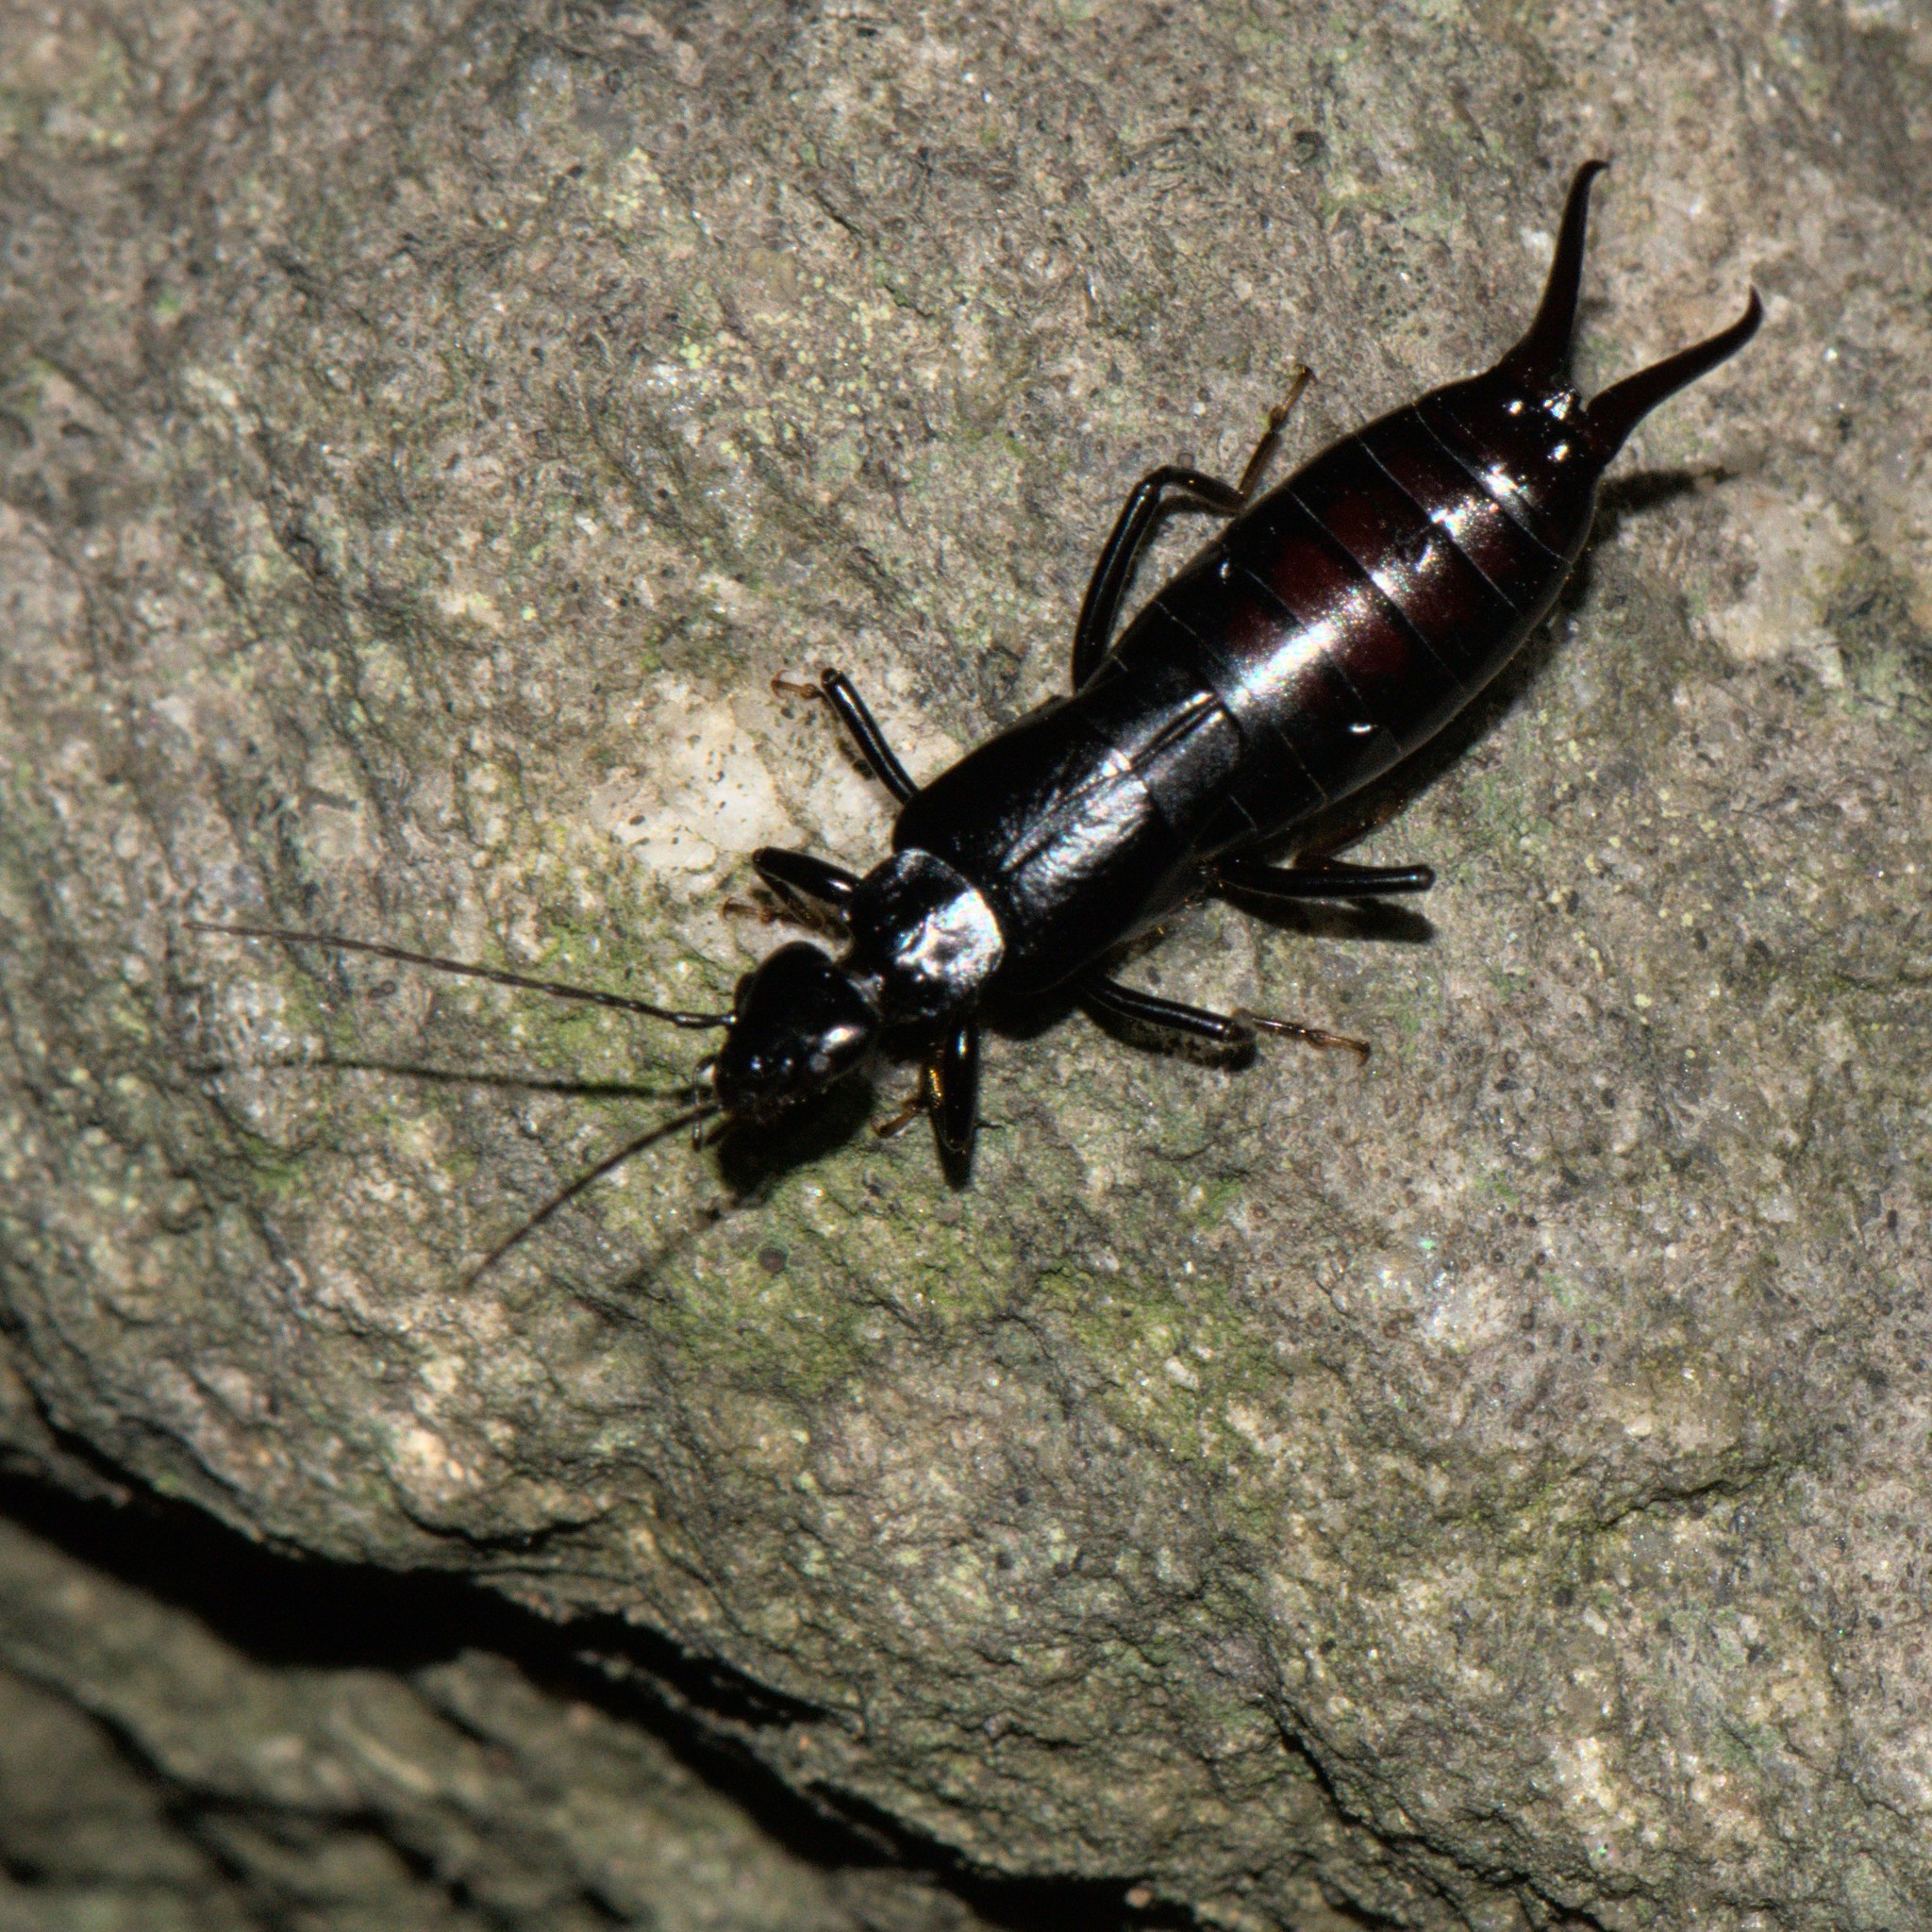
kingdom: Animalia
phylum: Arthropoda
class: Insecta
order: Dermaptera
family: Forficulidae
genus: Oreasiobia
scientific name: Oreasiobia stoliczkae
